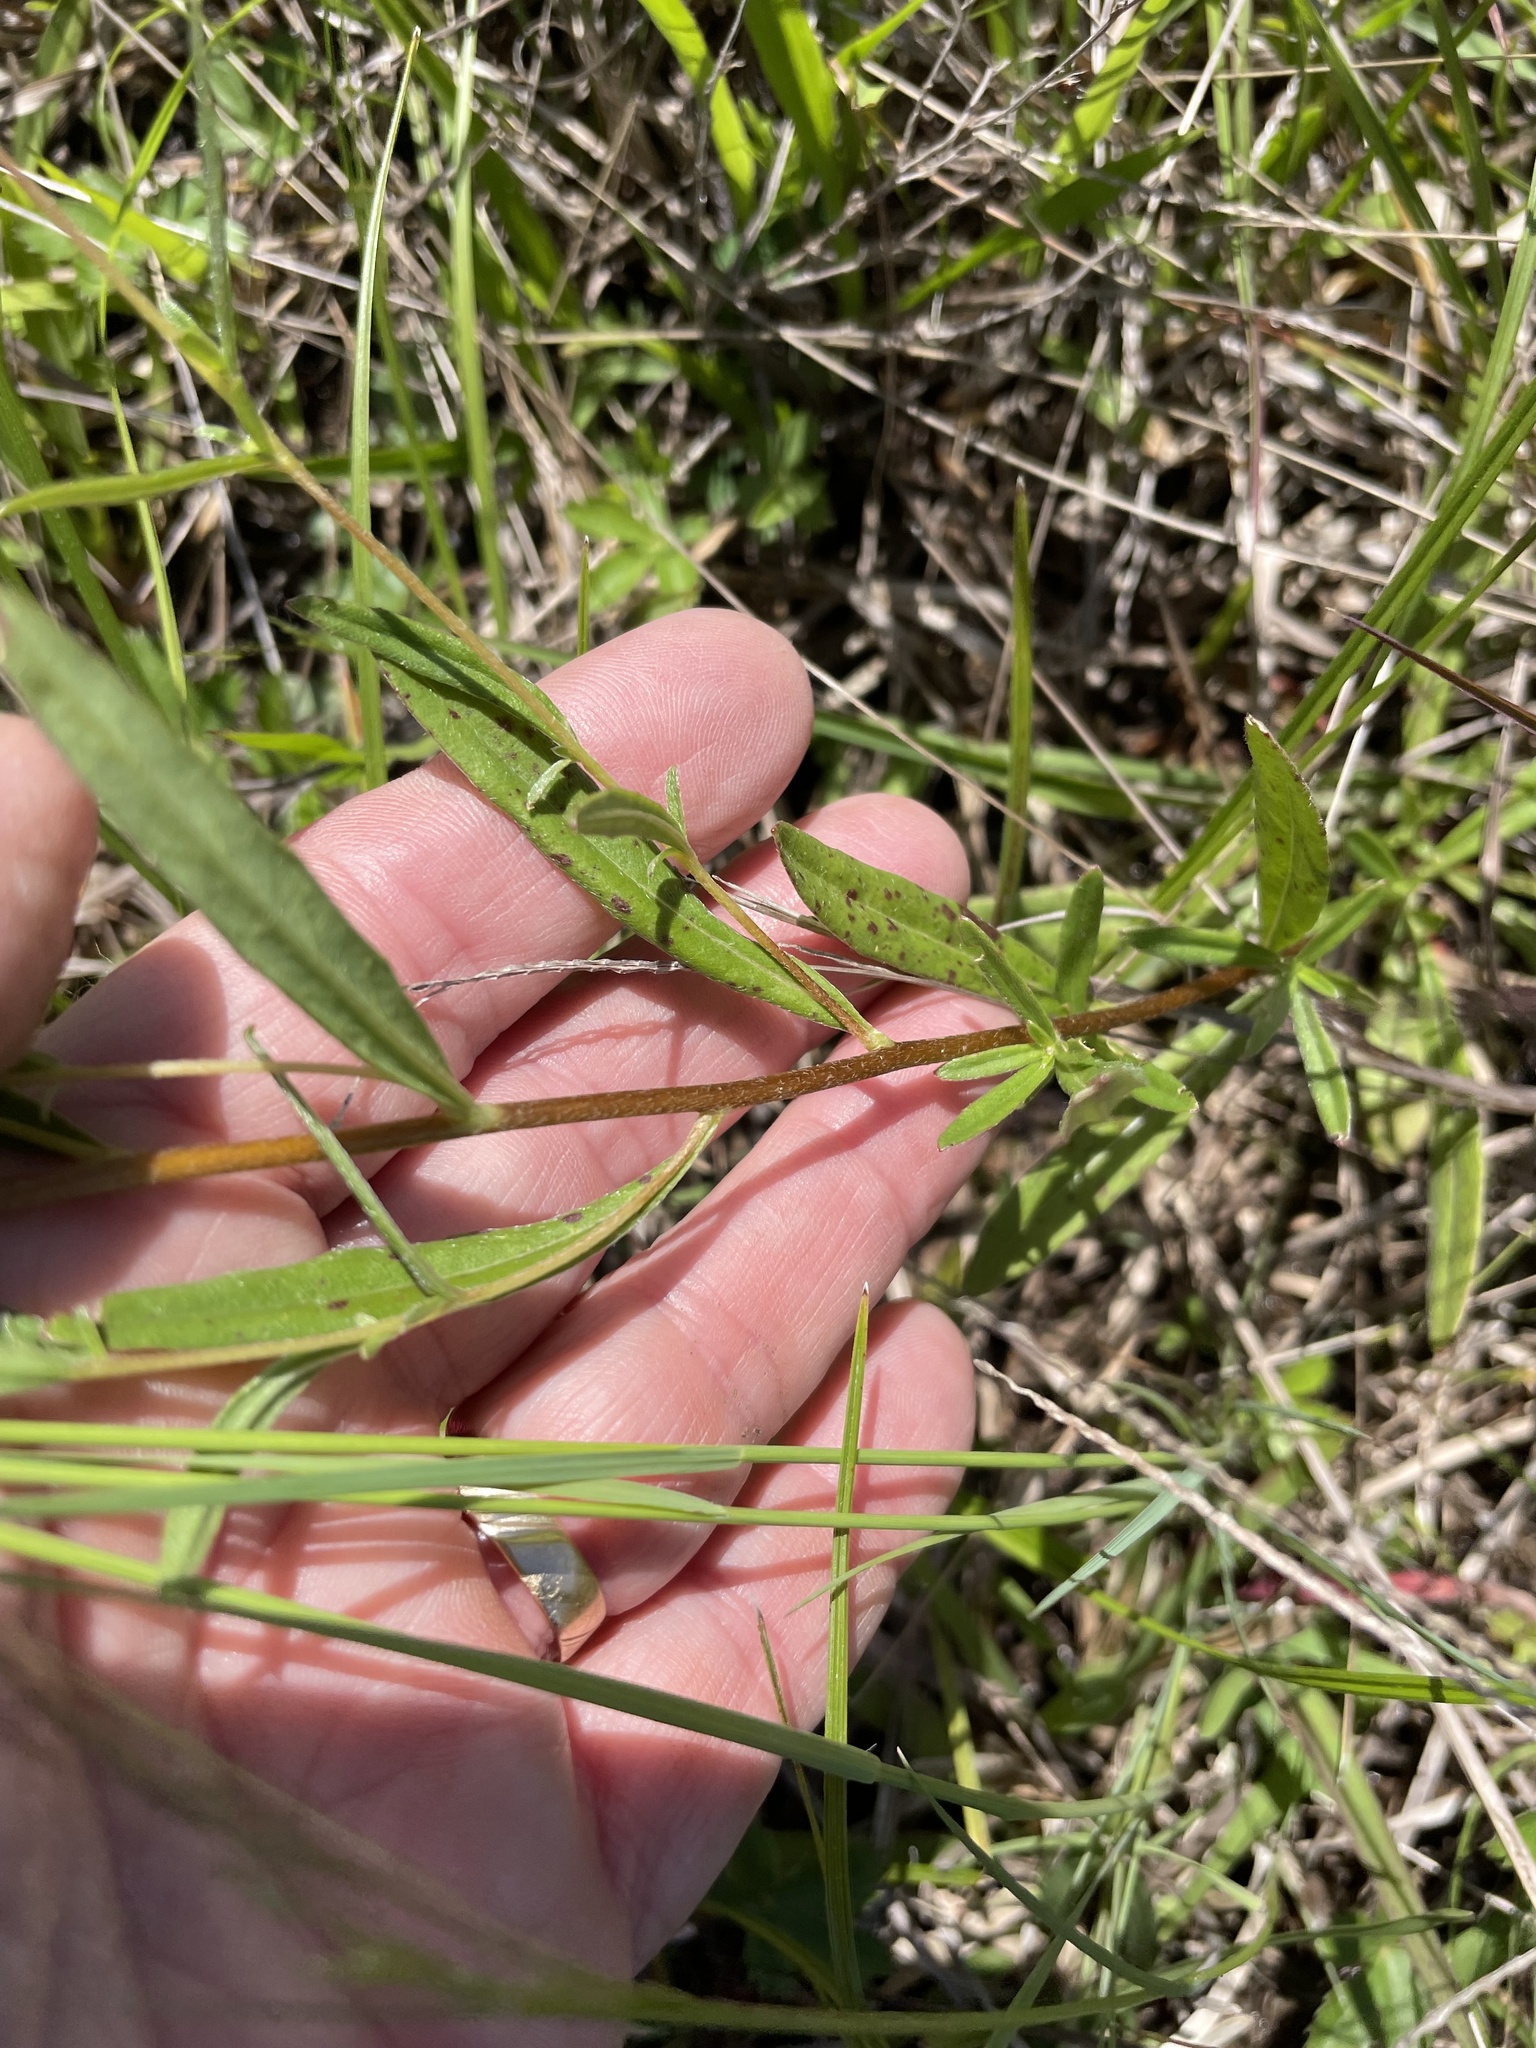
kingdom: Plantae
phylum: Tracheophyta
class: Magnoliopsida
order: Myrtales
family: Onagraceae
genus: Oenothera
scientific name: Oenothera fruticosa
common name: Southern sundrops
